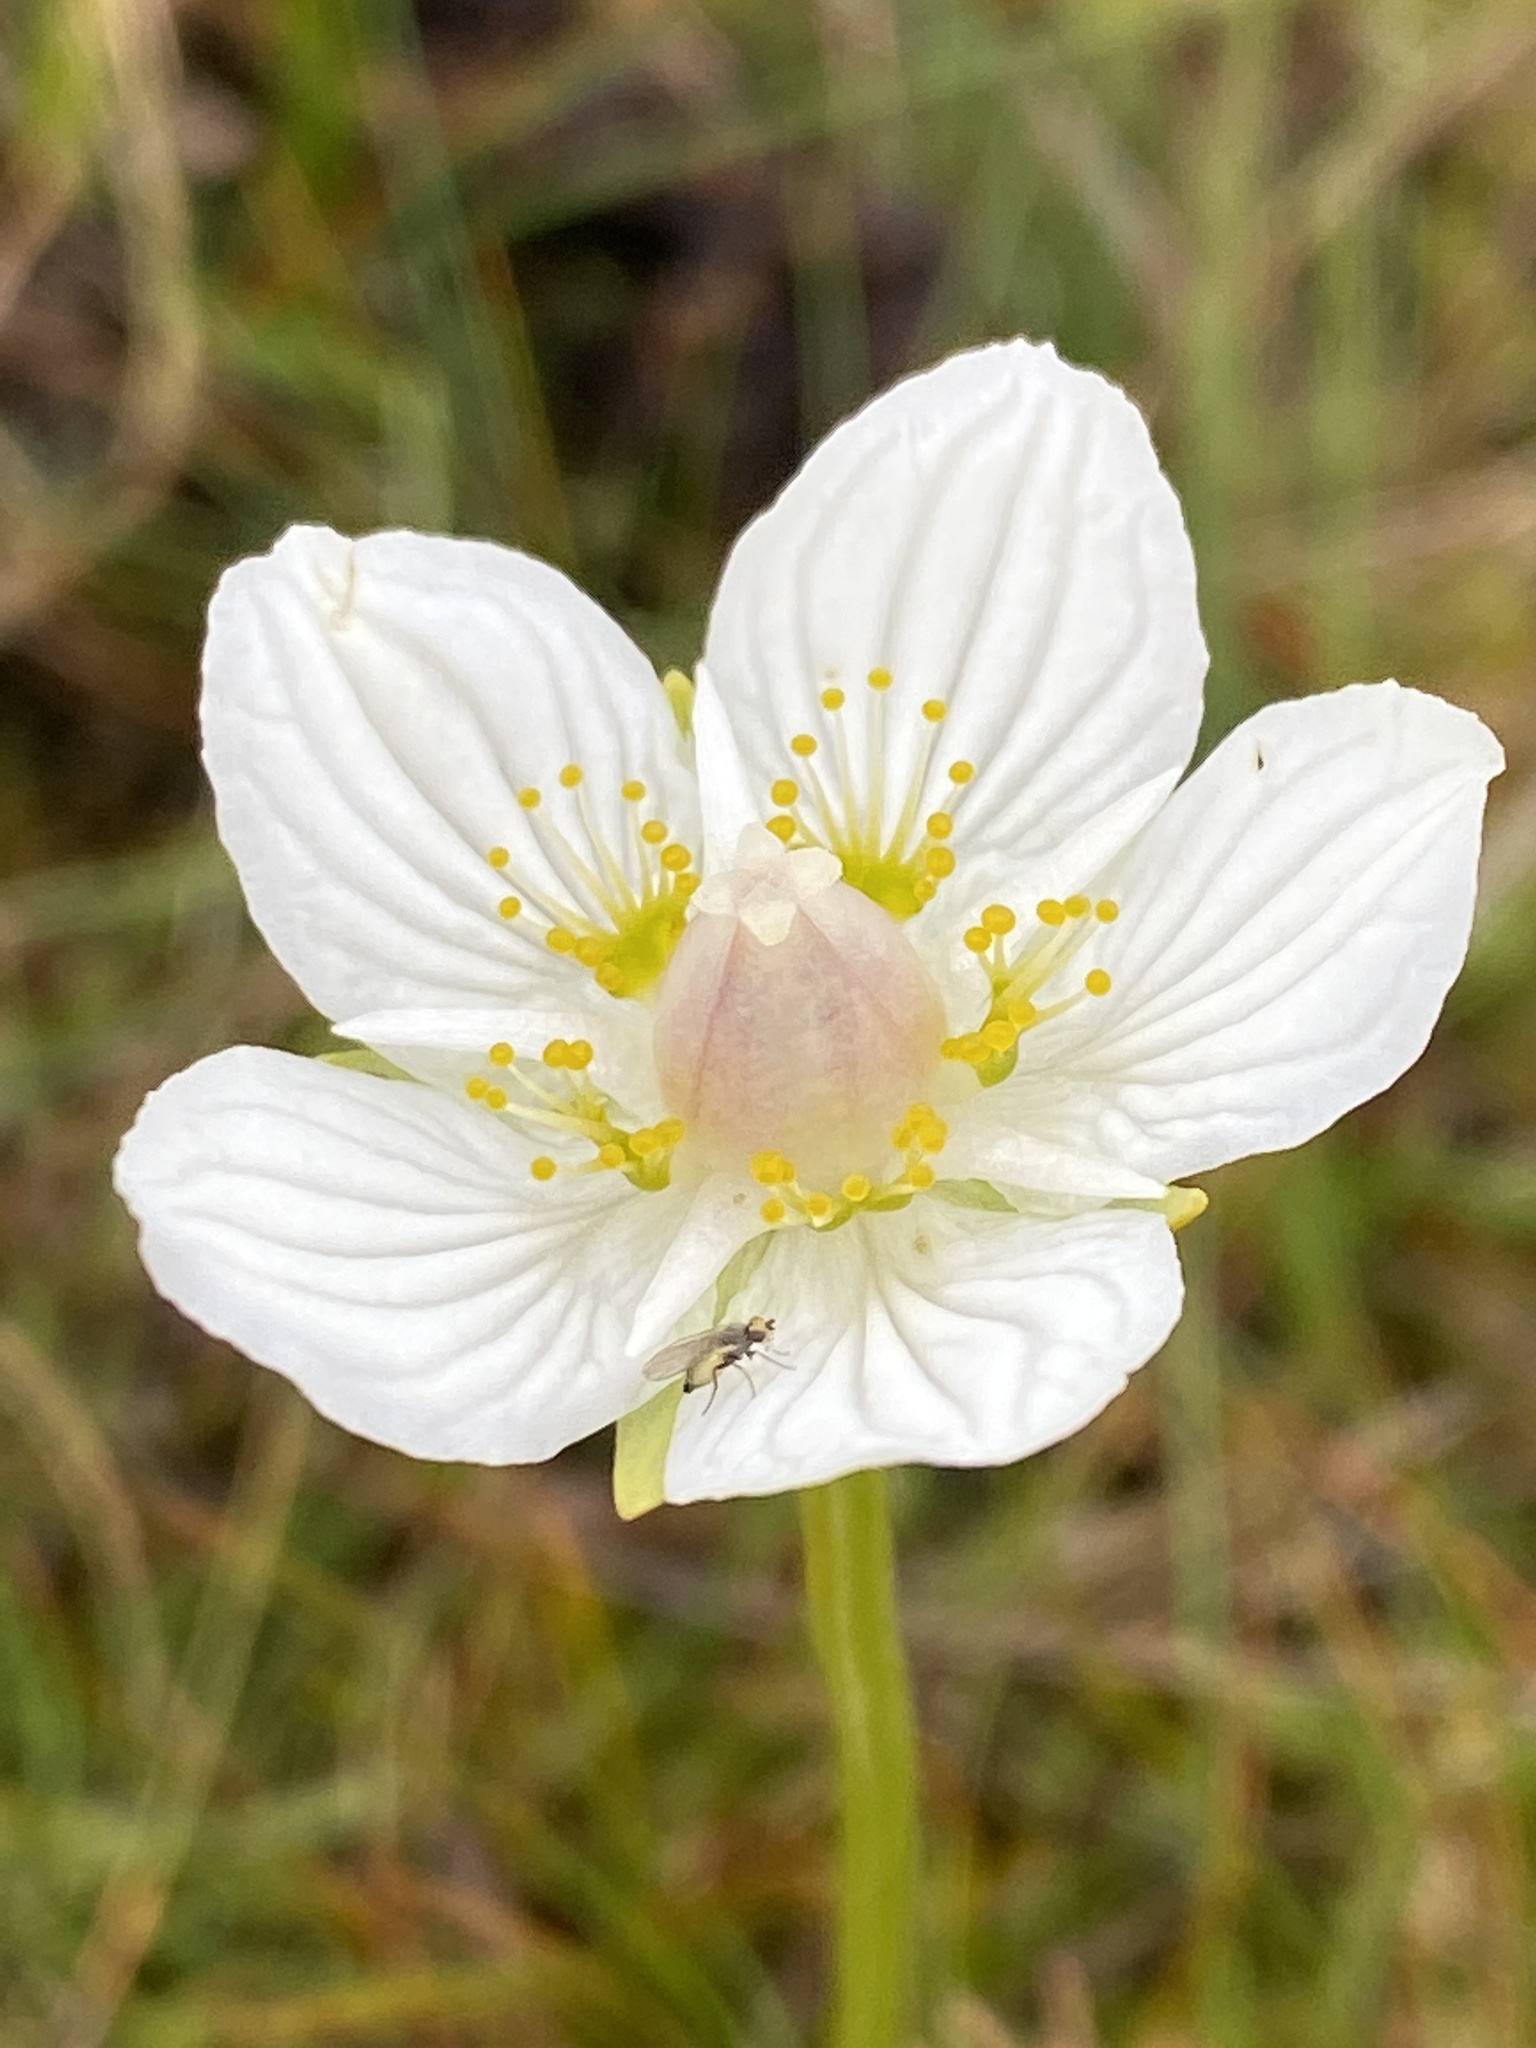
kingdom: Plantae
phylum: Tracheophyta
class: Magnoliopsida
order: Celastrales
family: Parnassiaceae
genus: Parnassia
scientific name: Parnassia palustris
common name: Grass-of-parnassus
